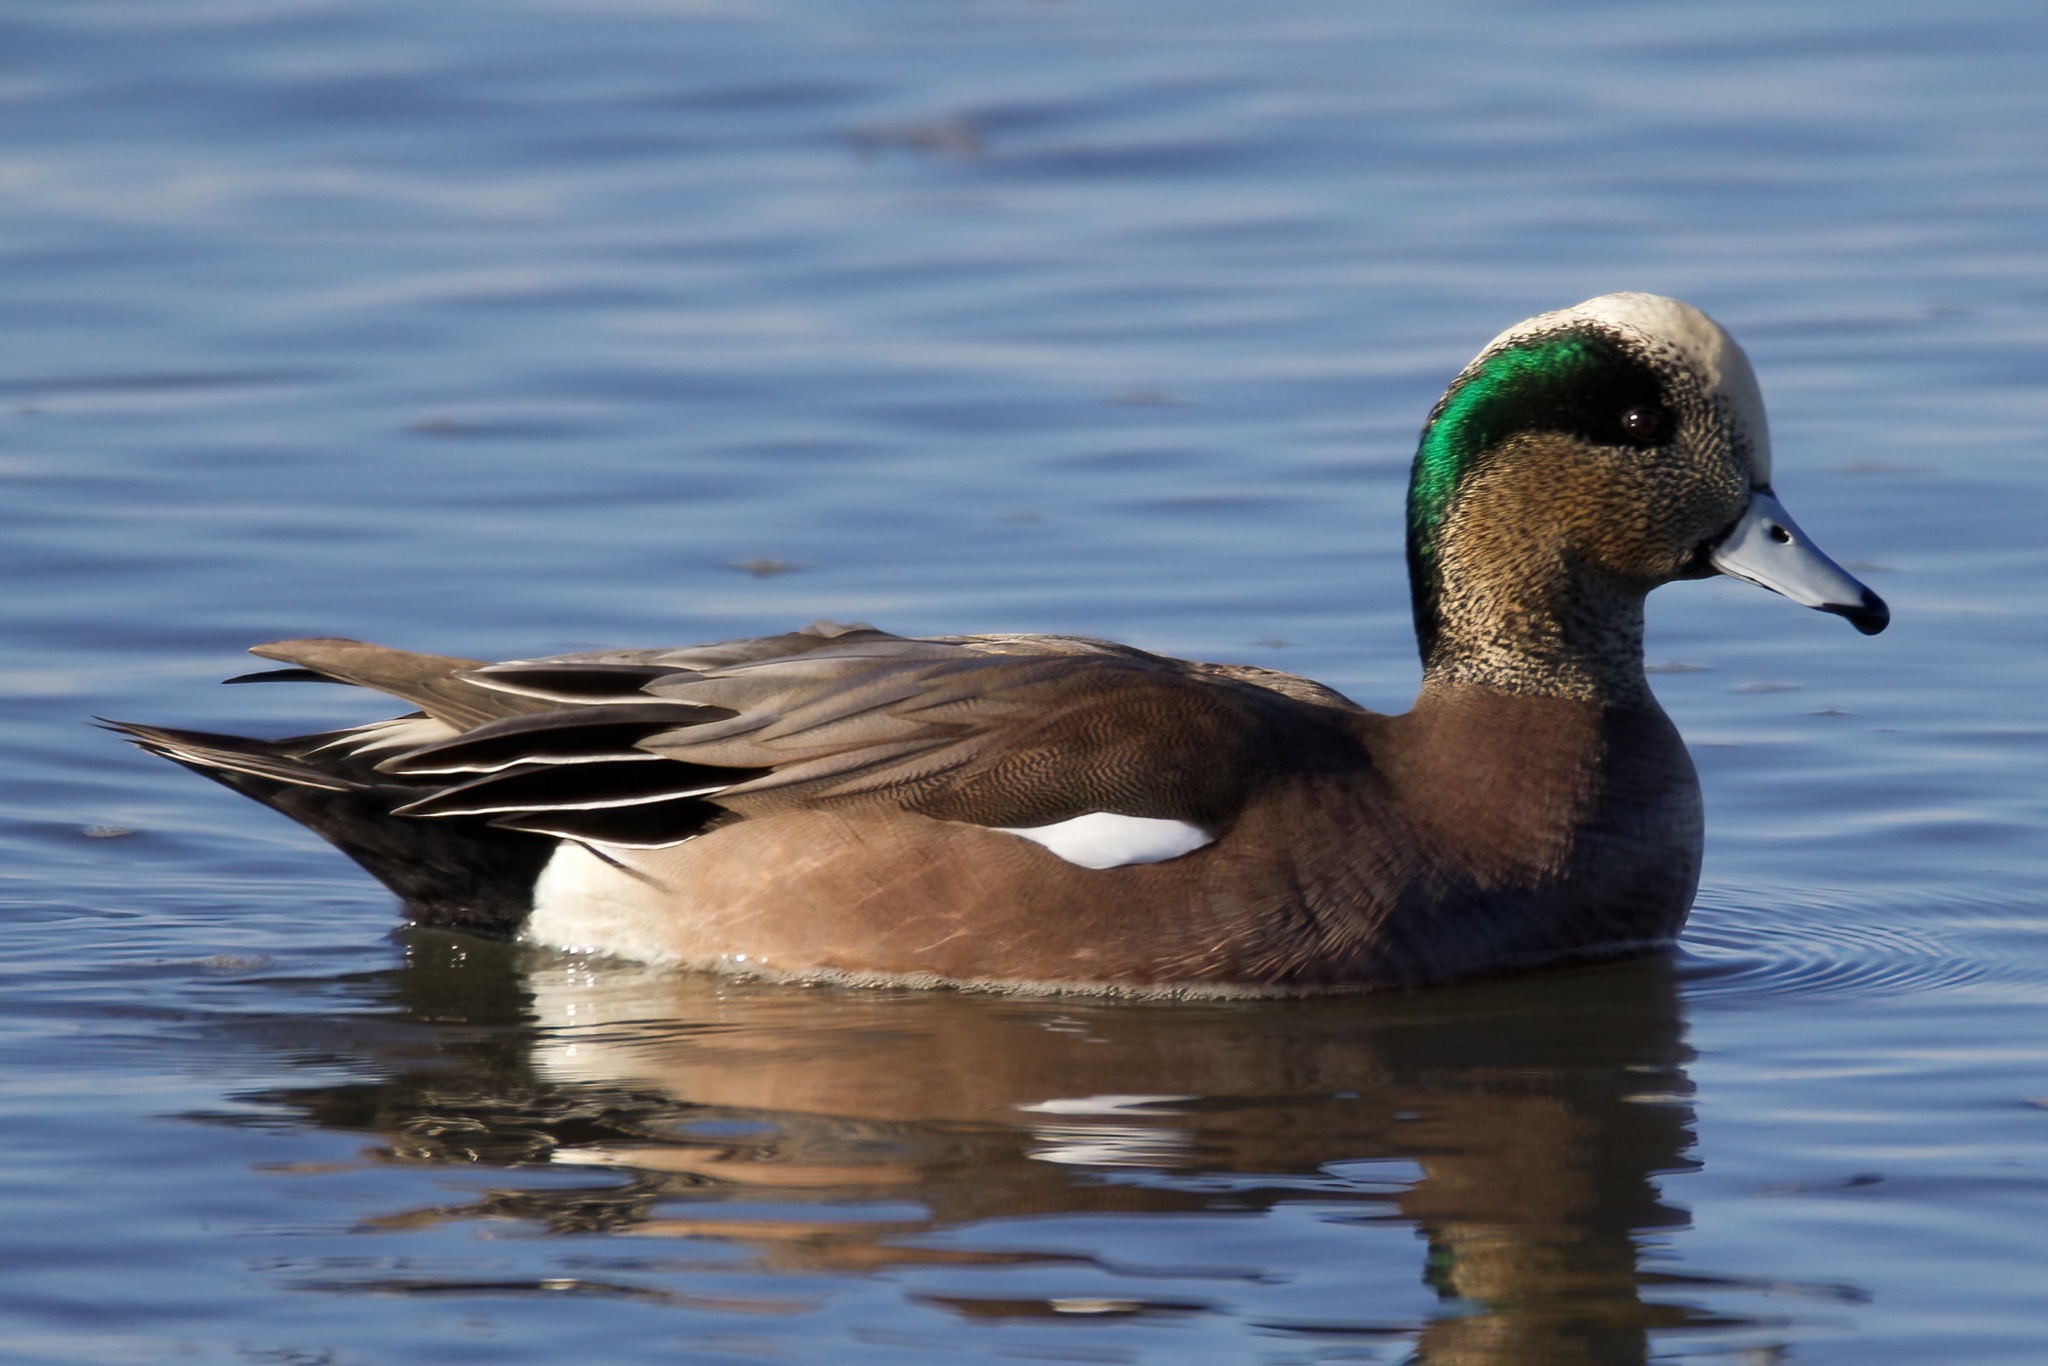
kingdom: Animalia
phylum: Chordata
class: Aves
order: Anseriformes
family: Anatidae
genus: Mareca
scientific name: Mareca americana
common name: American wigeon
